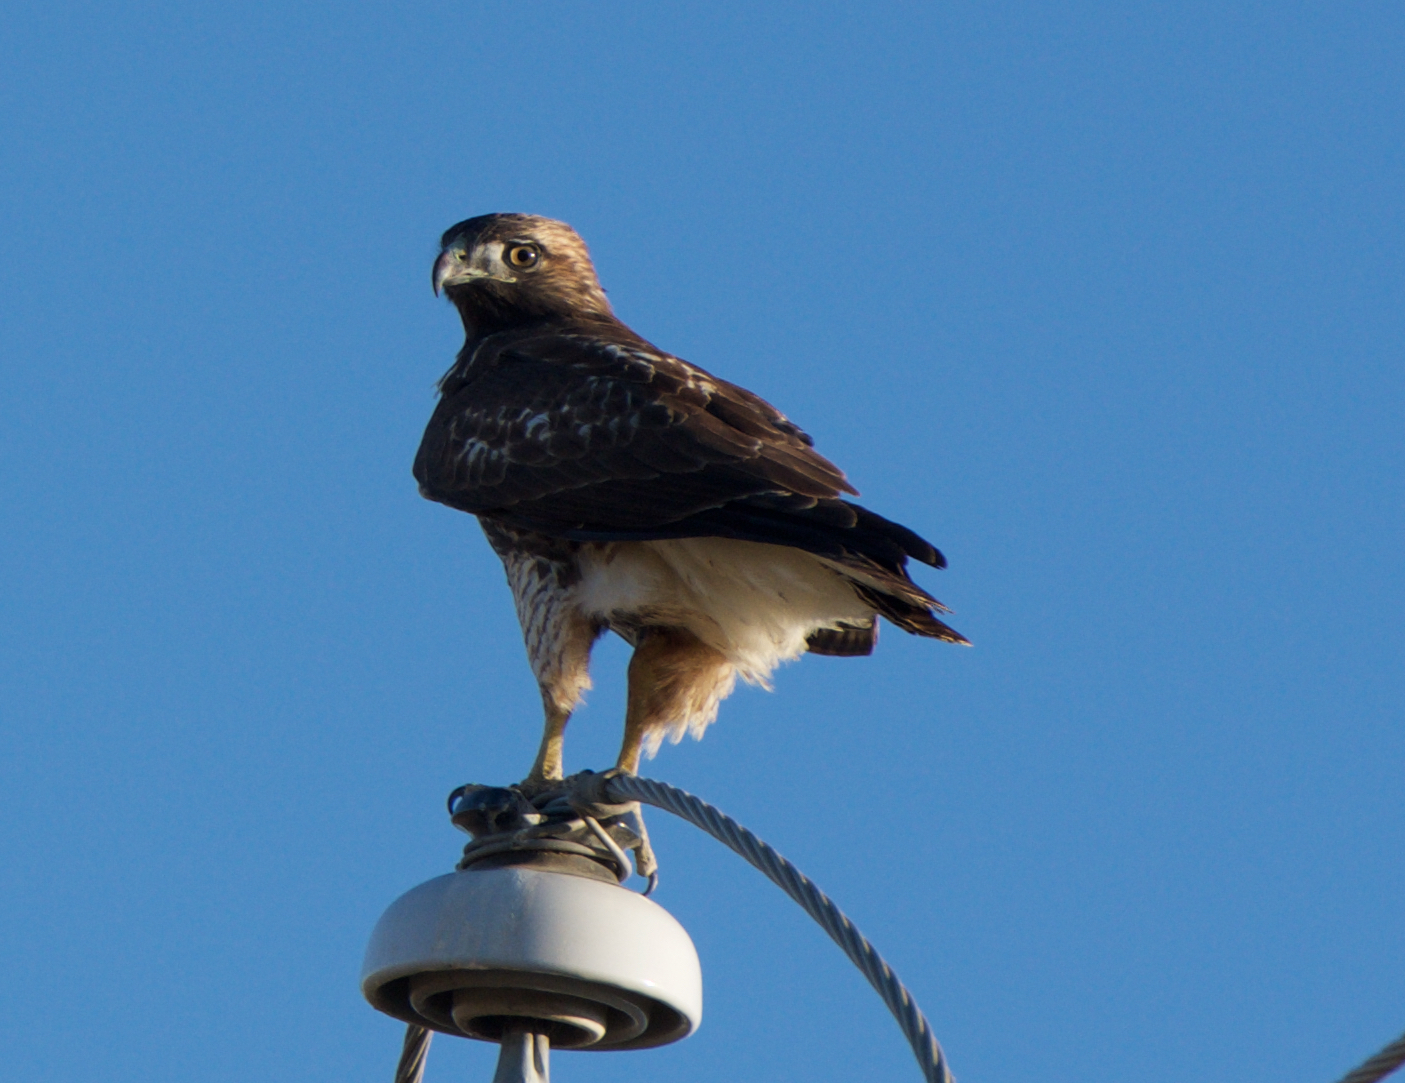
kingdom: Animalia
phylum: Chordata
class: Aves
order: Accipitriformes
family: Accipitridae
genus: Buteo
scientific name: Buteo jamaicensis
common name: Red-tailed hawk
